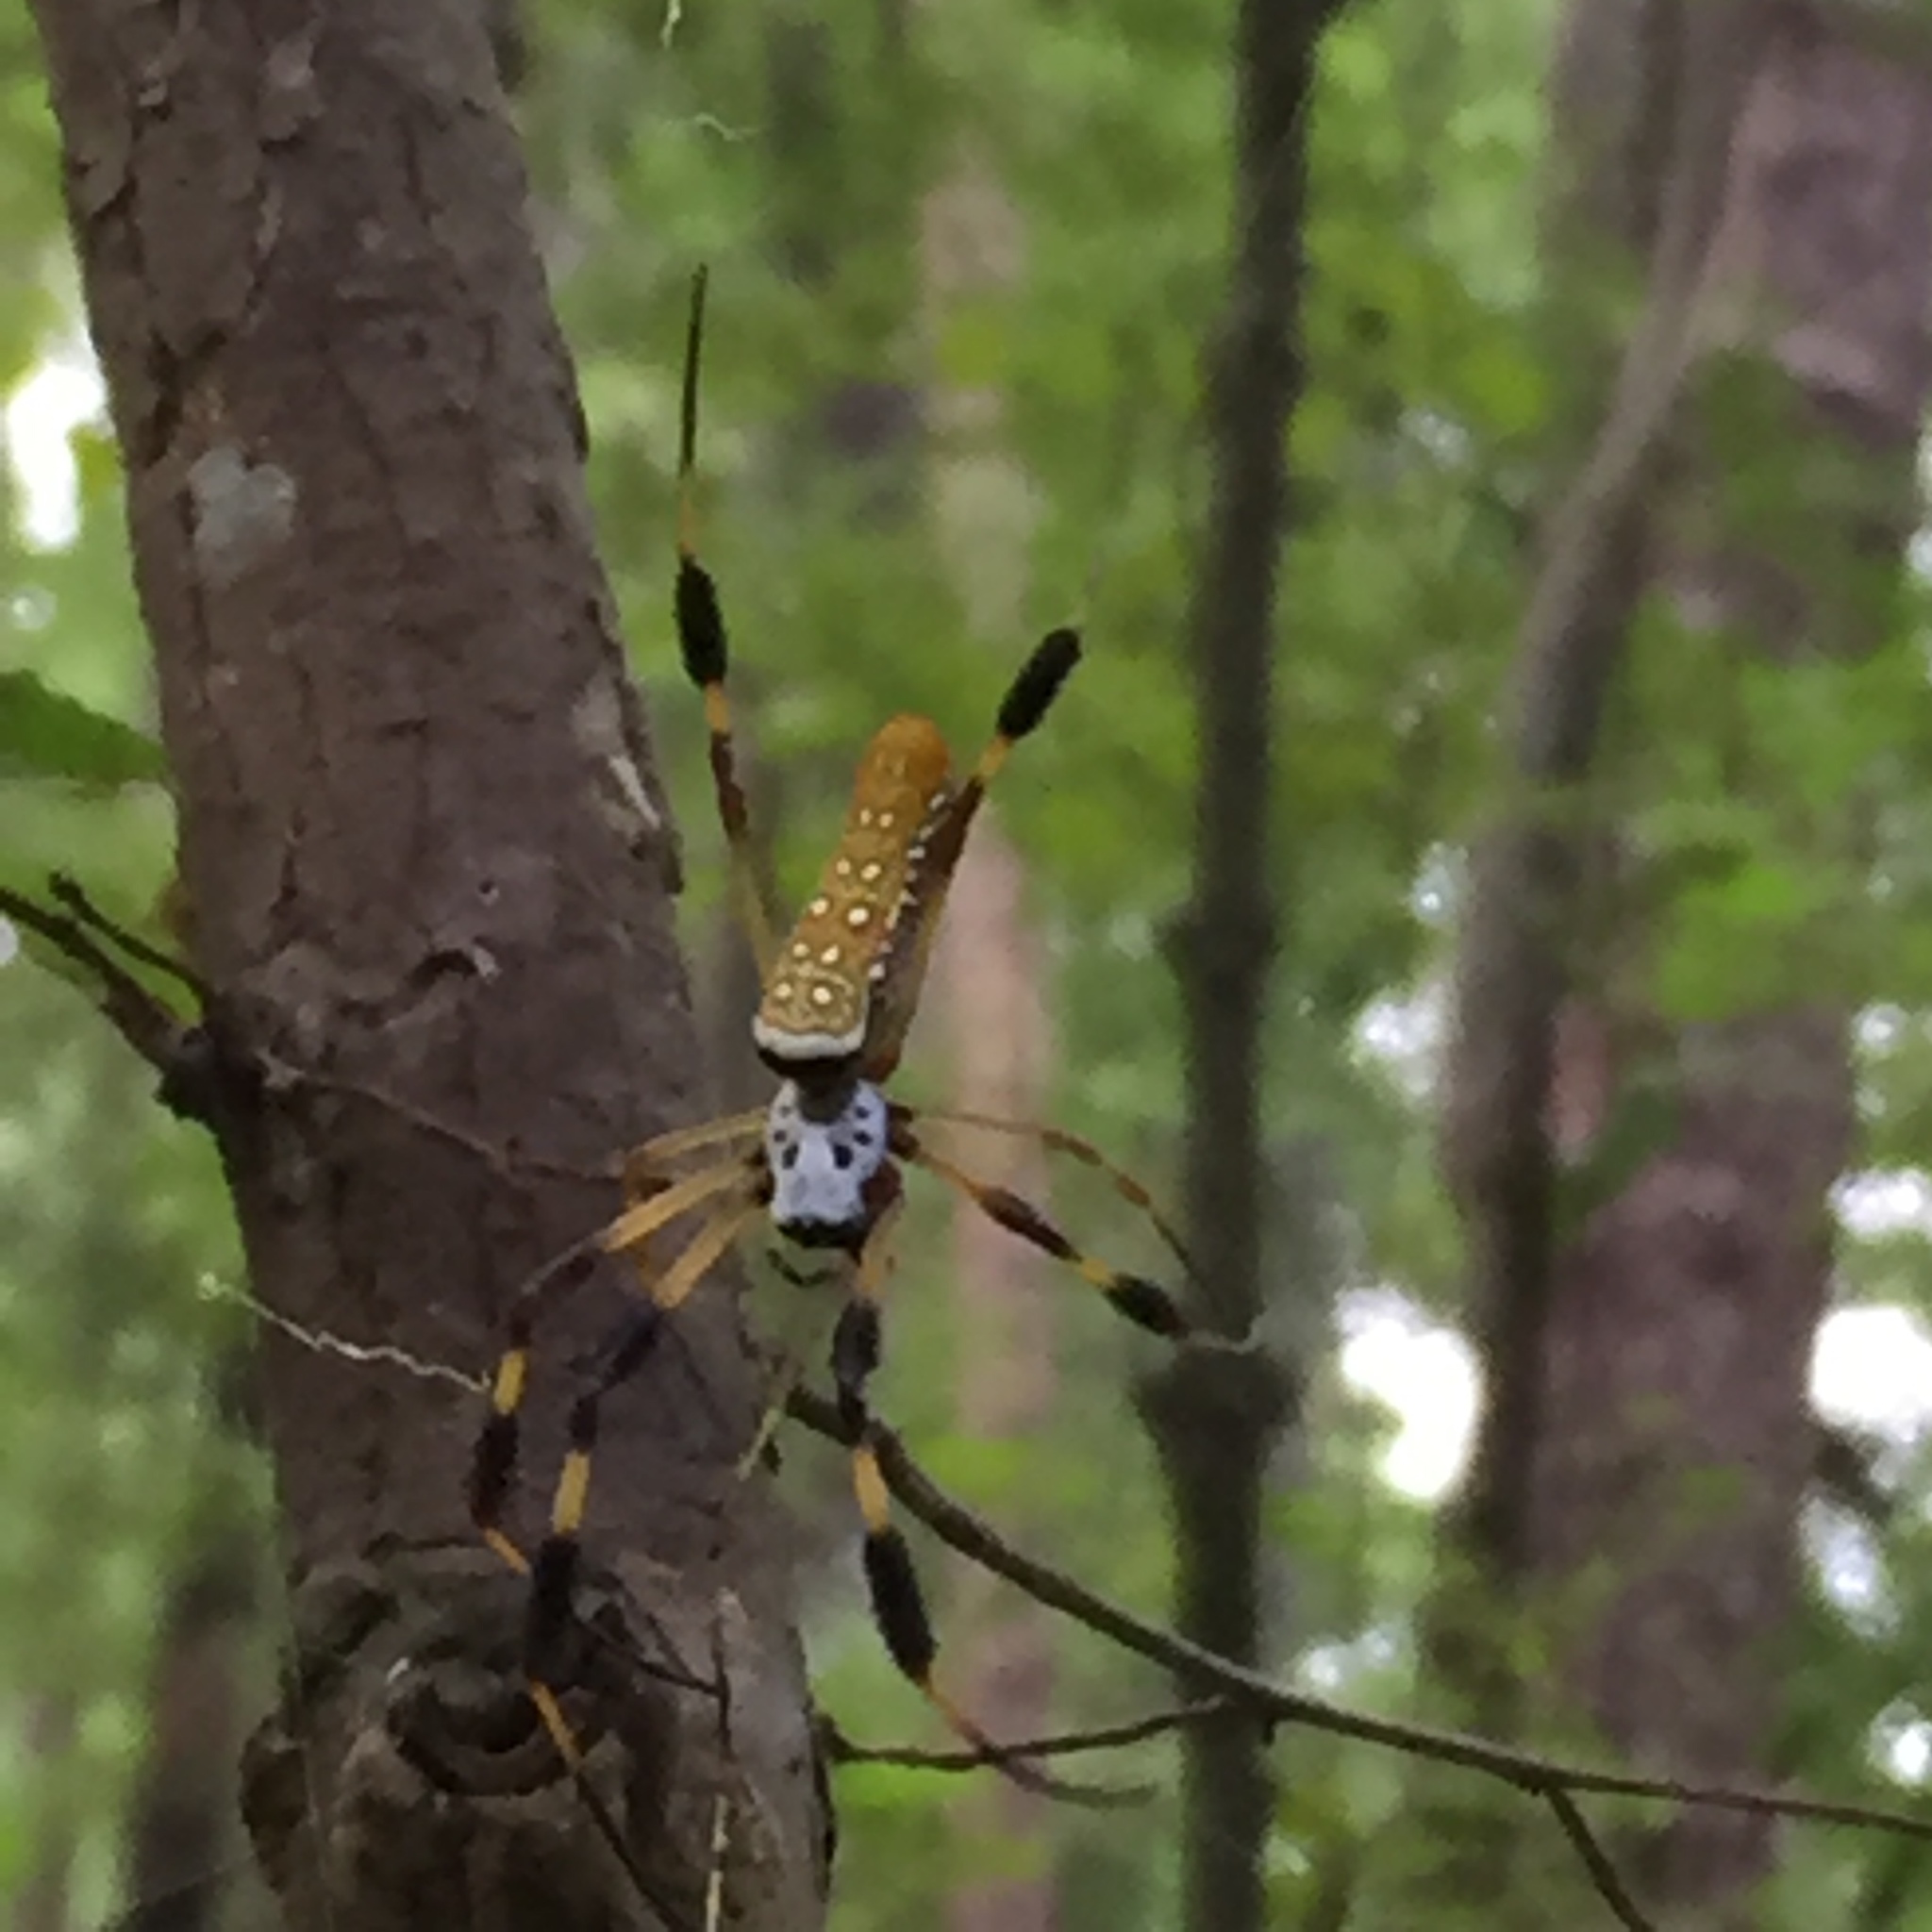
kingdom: Animalia
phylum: Arthropoda
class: Arachnida
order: Araneae
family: Araneidae
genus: Trichonephila
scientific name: Trichonephila clavipes
